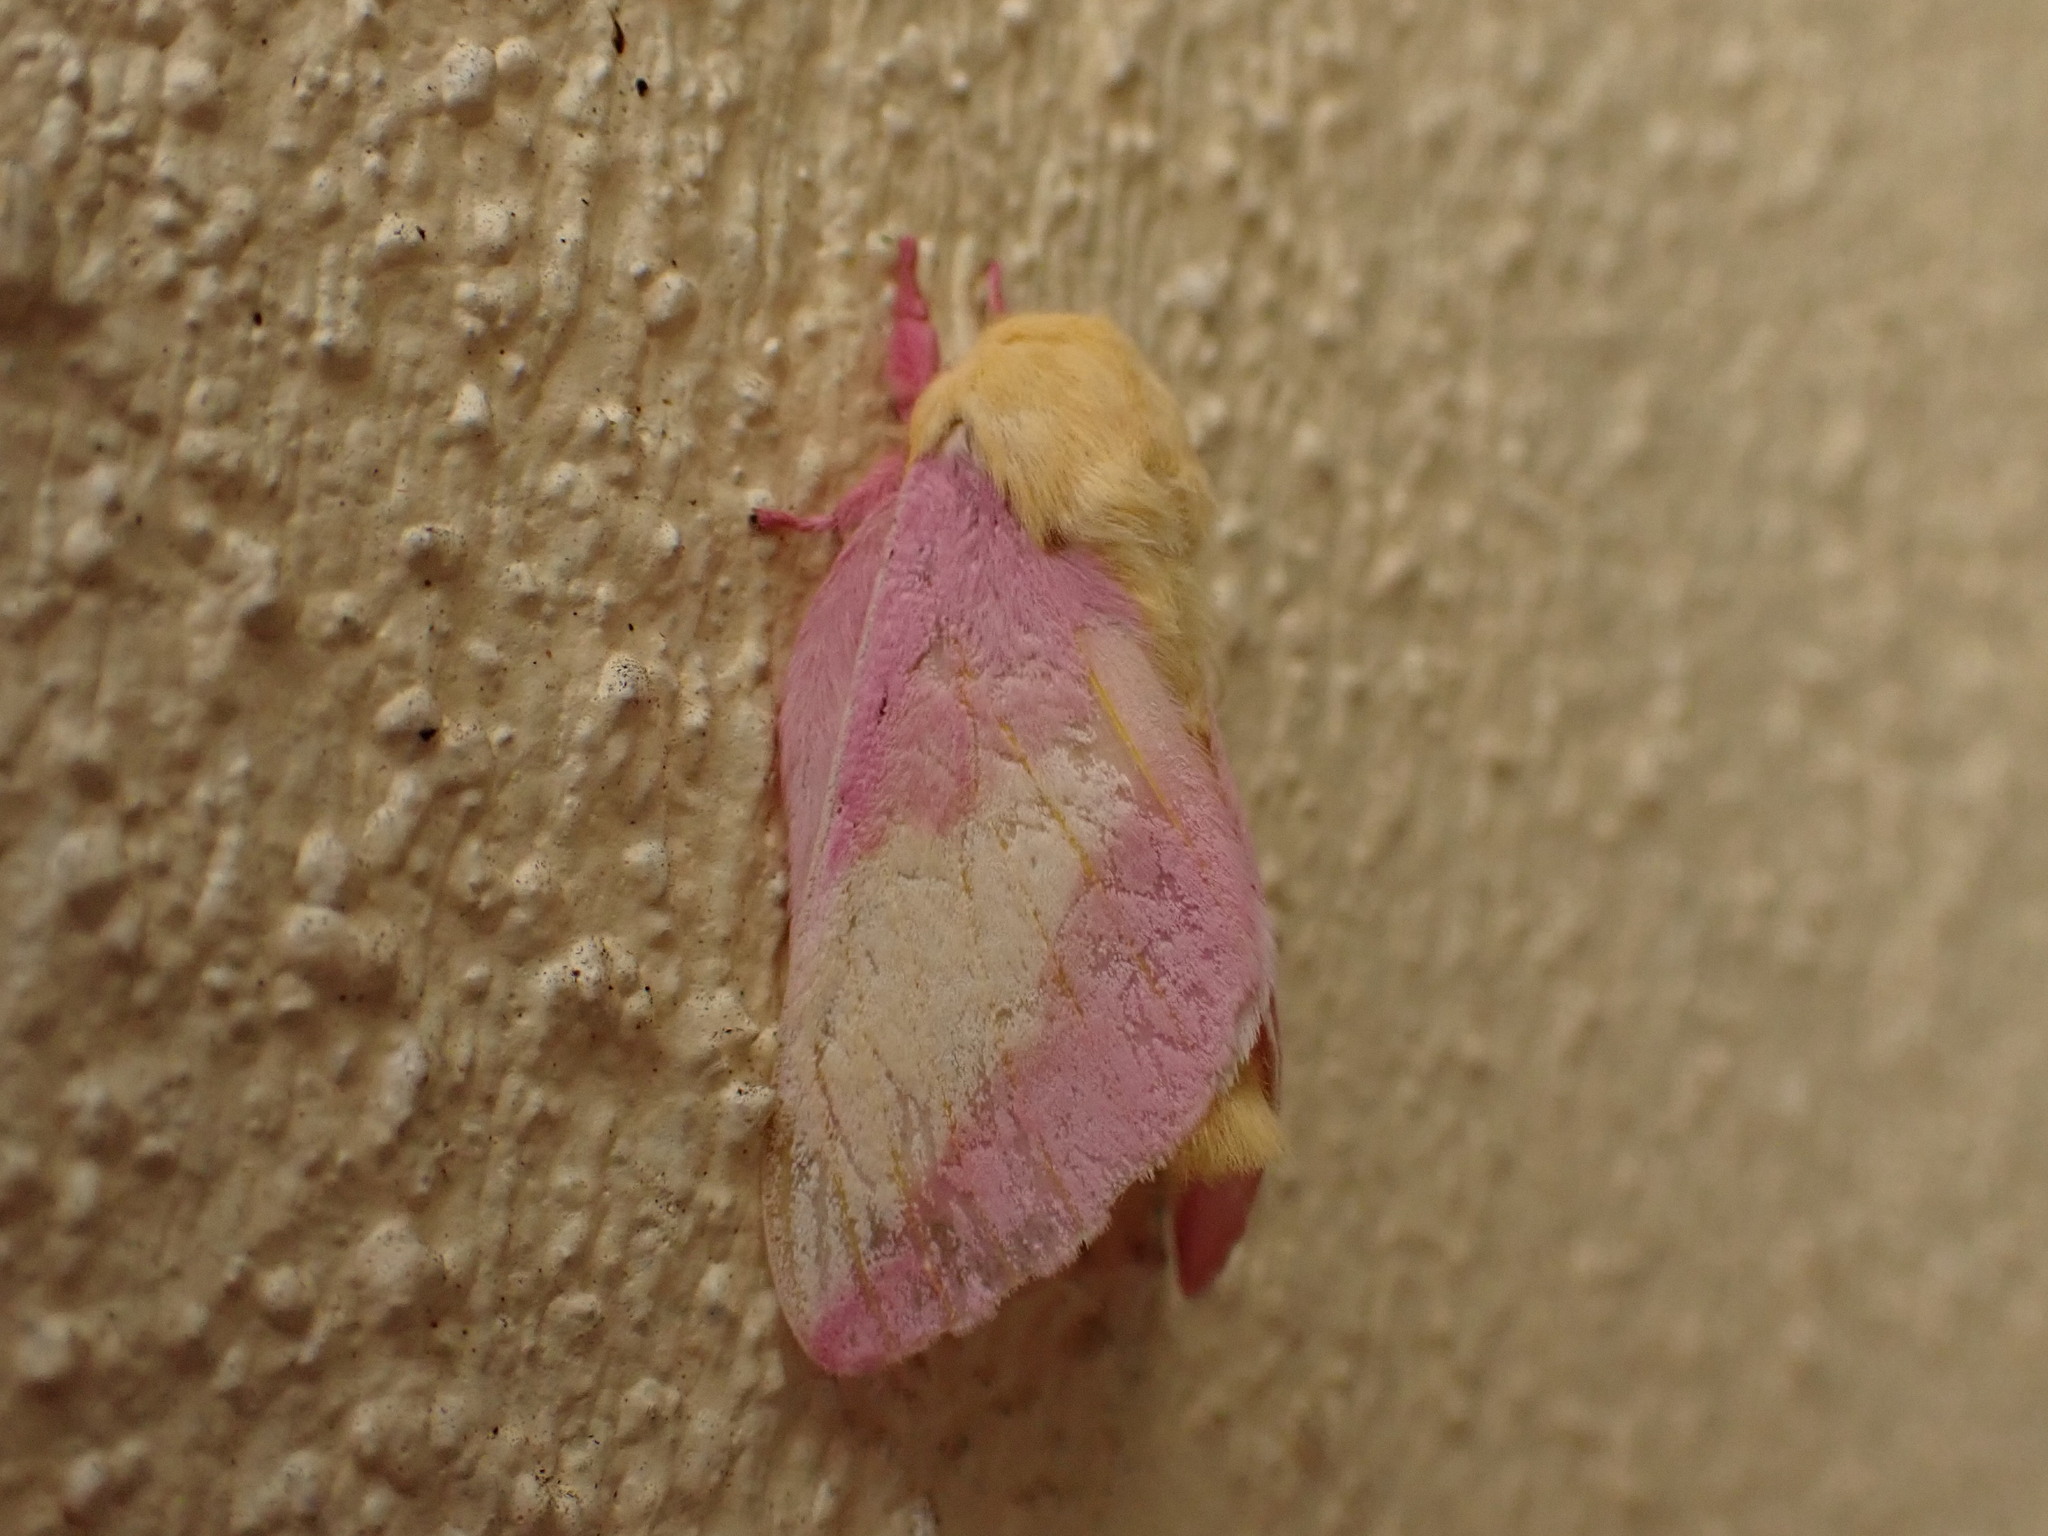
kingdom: Animalia
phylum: Arthropoda
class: Insecta
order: Lepidoptera
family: Saturniidae
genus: Dryocampa
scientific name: Dryocampa rubicunda
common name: Rosy maple moth
